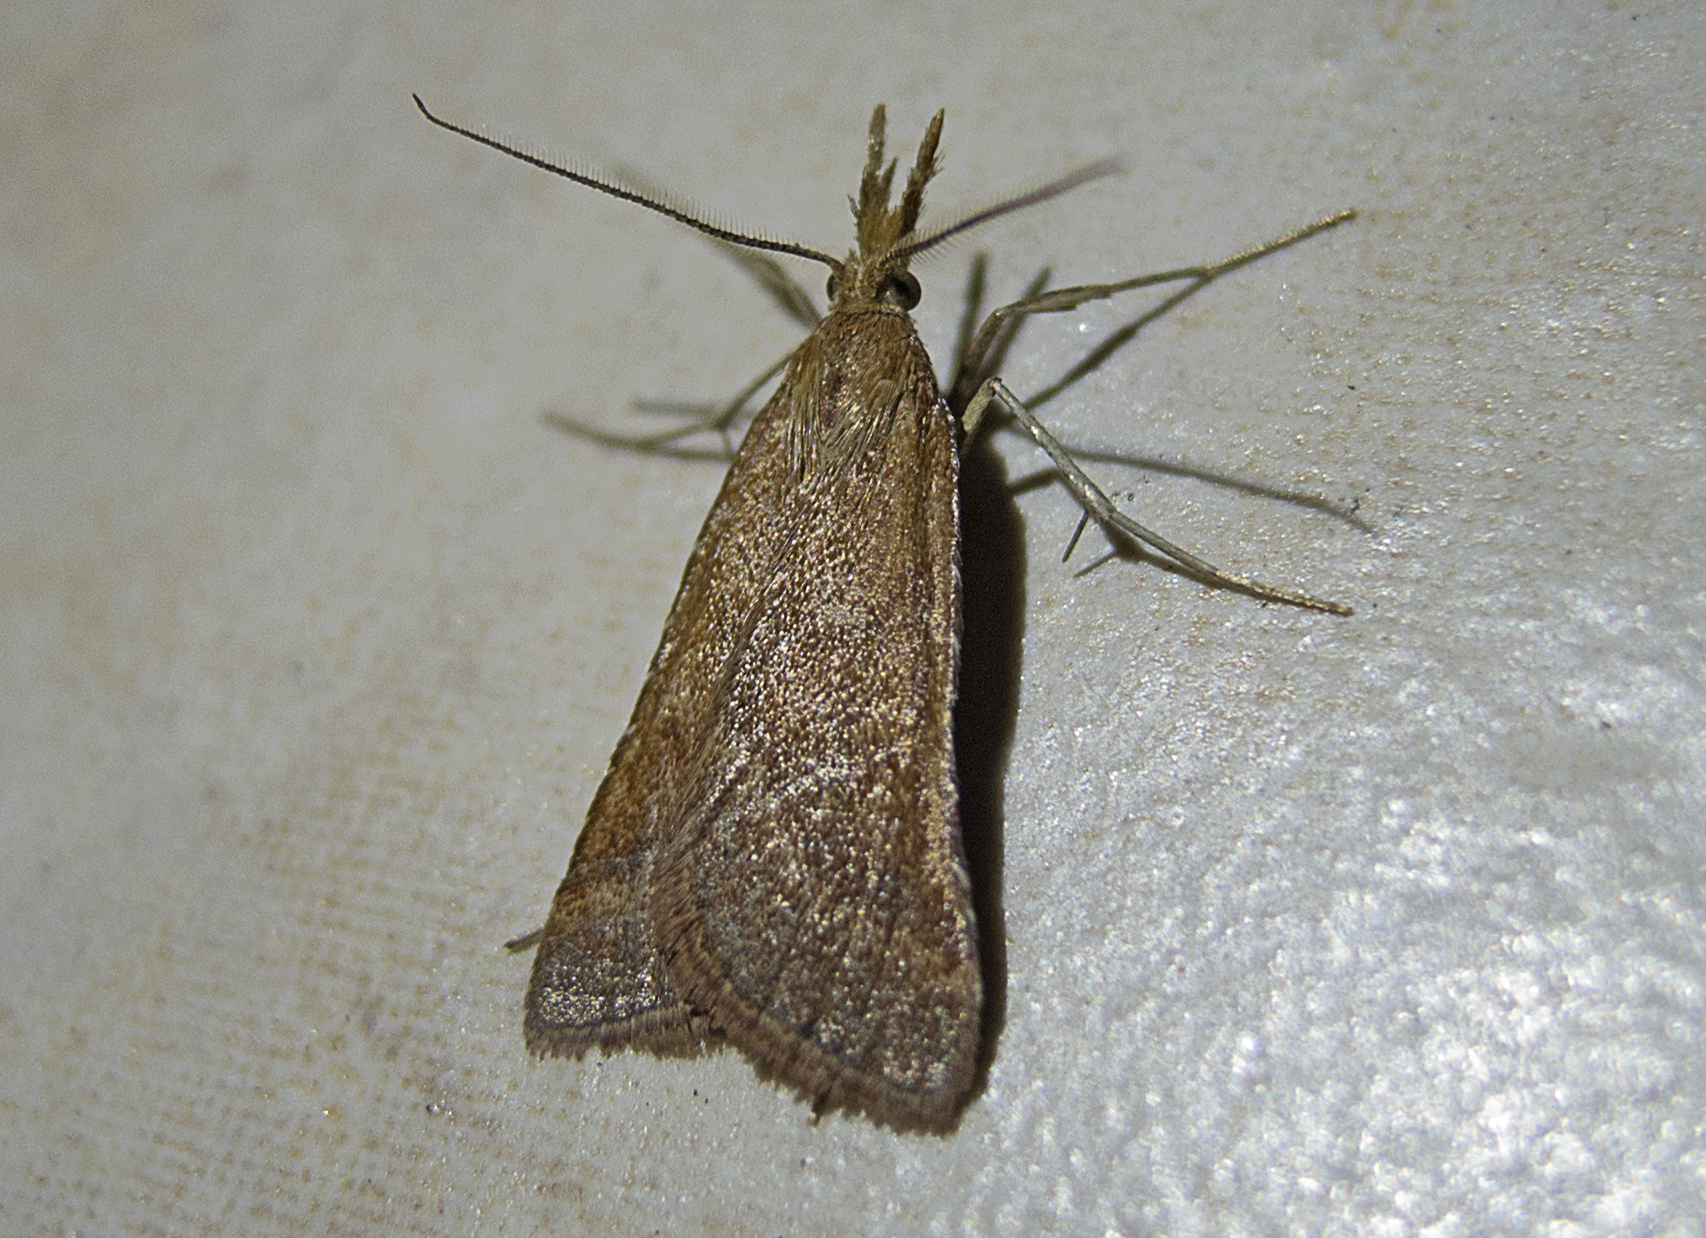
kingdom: Animalia
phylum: Arthropoda
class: Insecta
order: Lepidoptera
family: Pyralidae
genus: Synaphe
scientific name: Synaphe punctalis
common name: Long-legged tabby
